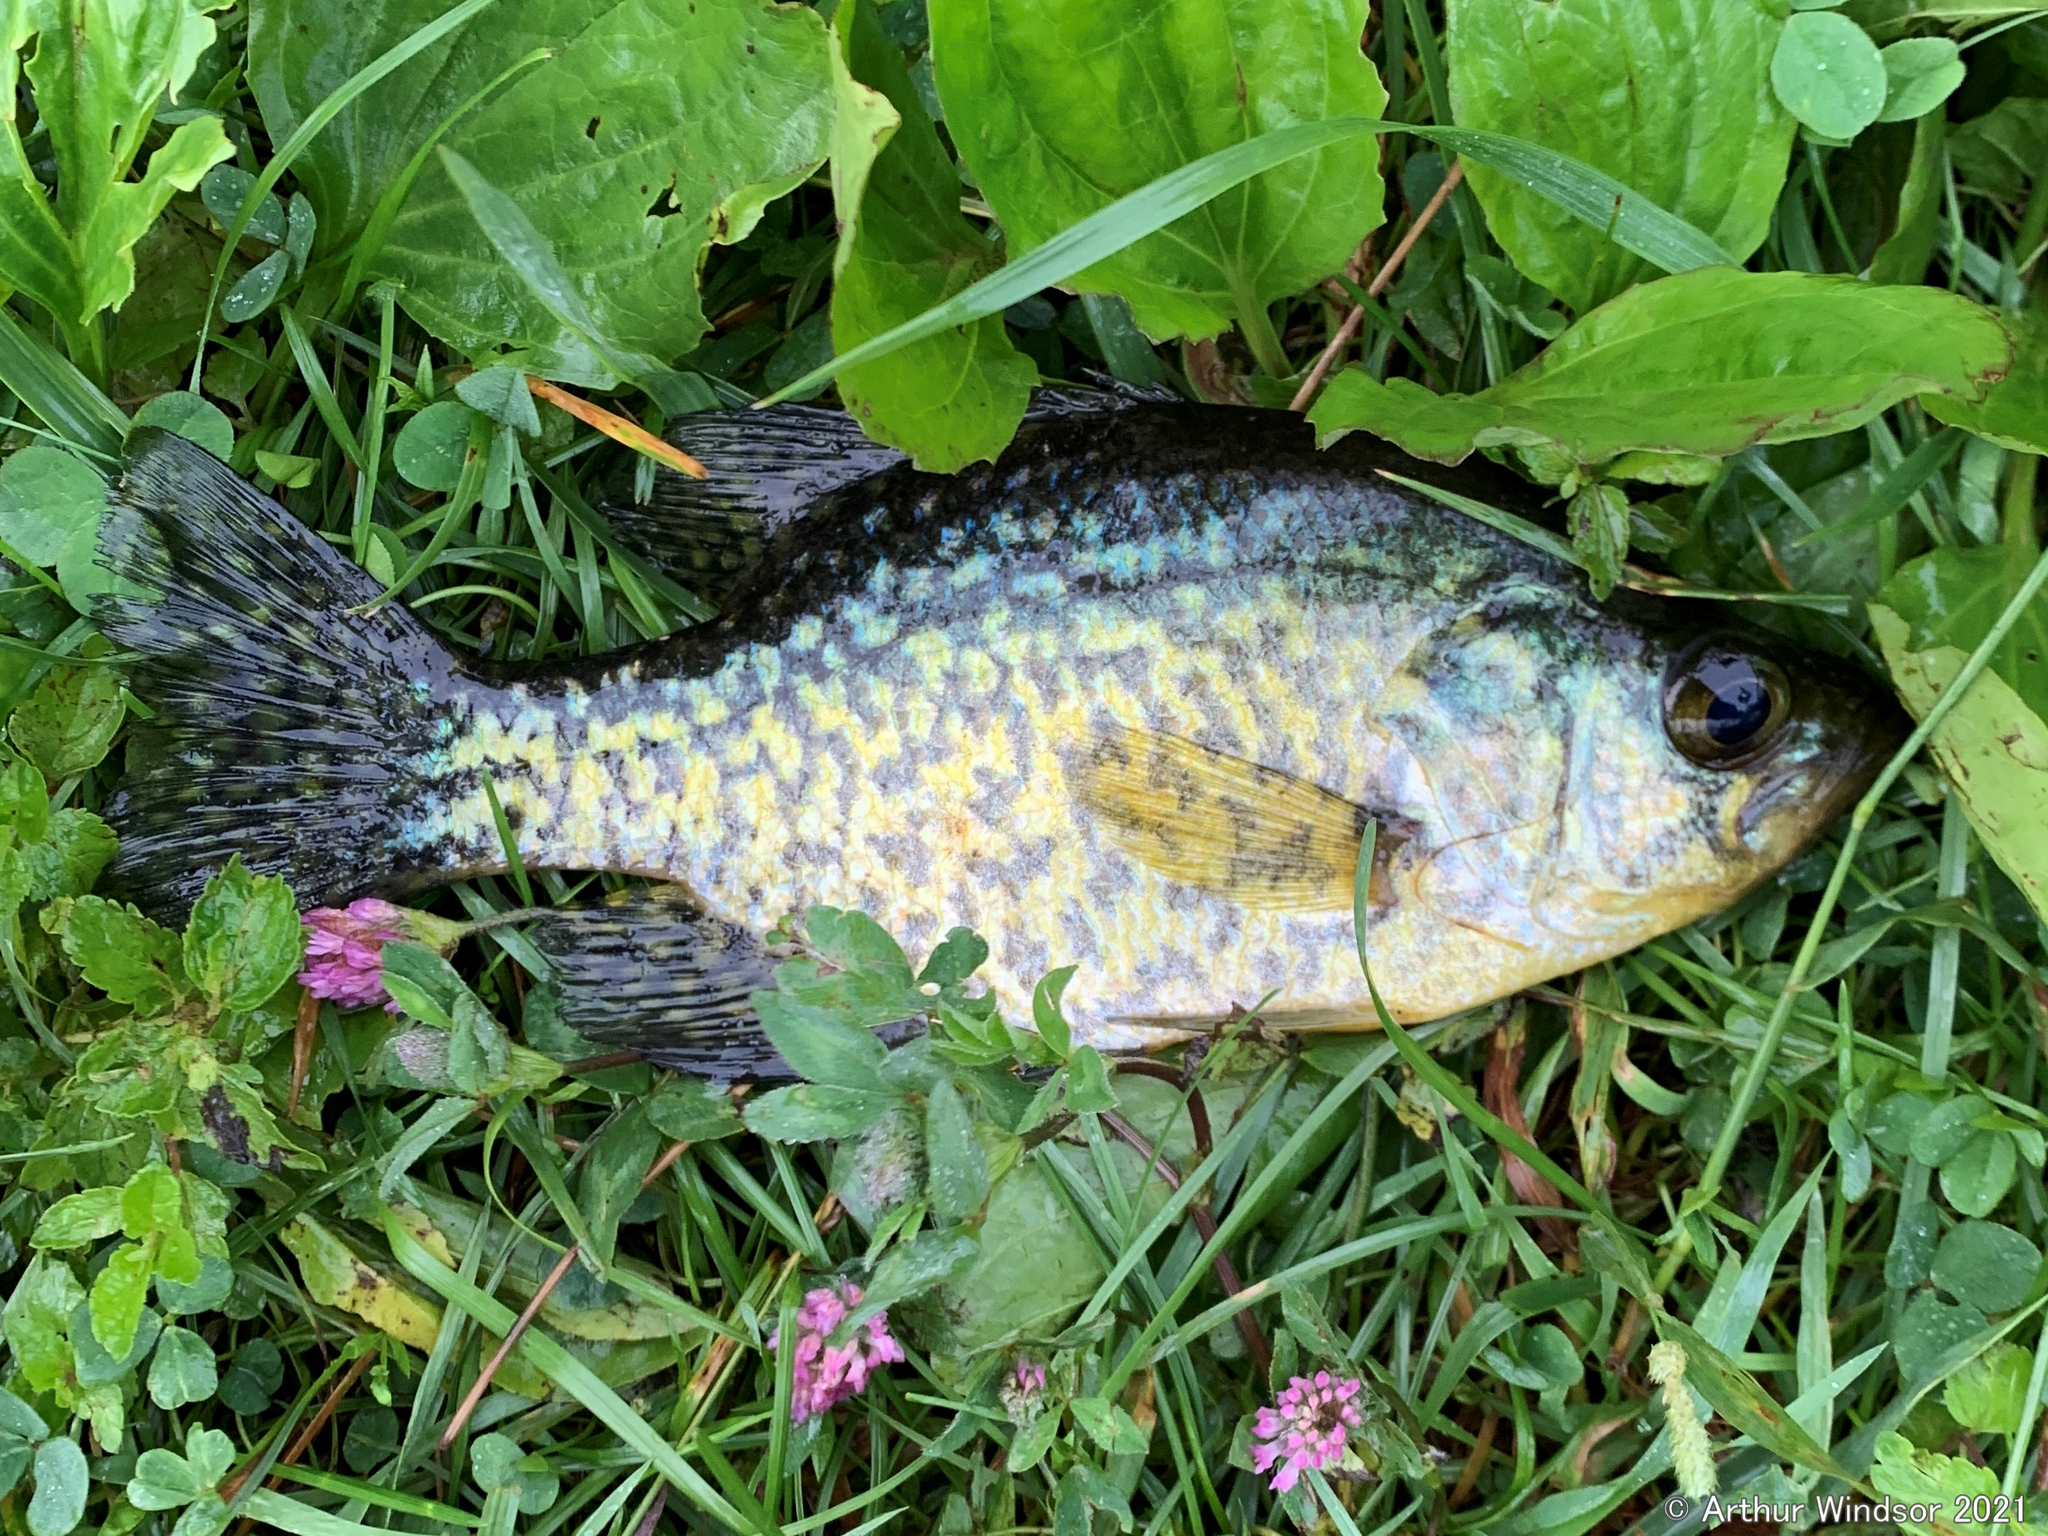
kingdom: Animalia
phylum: Chordata
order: Perciformes
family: Centrarchidae
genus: Pomoxis
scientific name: Pomoxis nigromaculatus
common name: Black crappie
